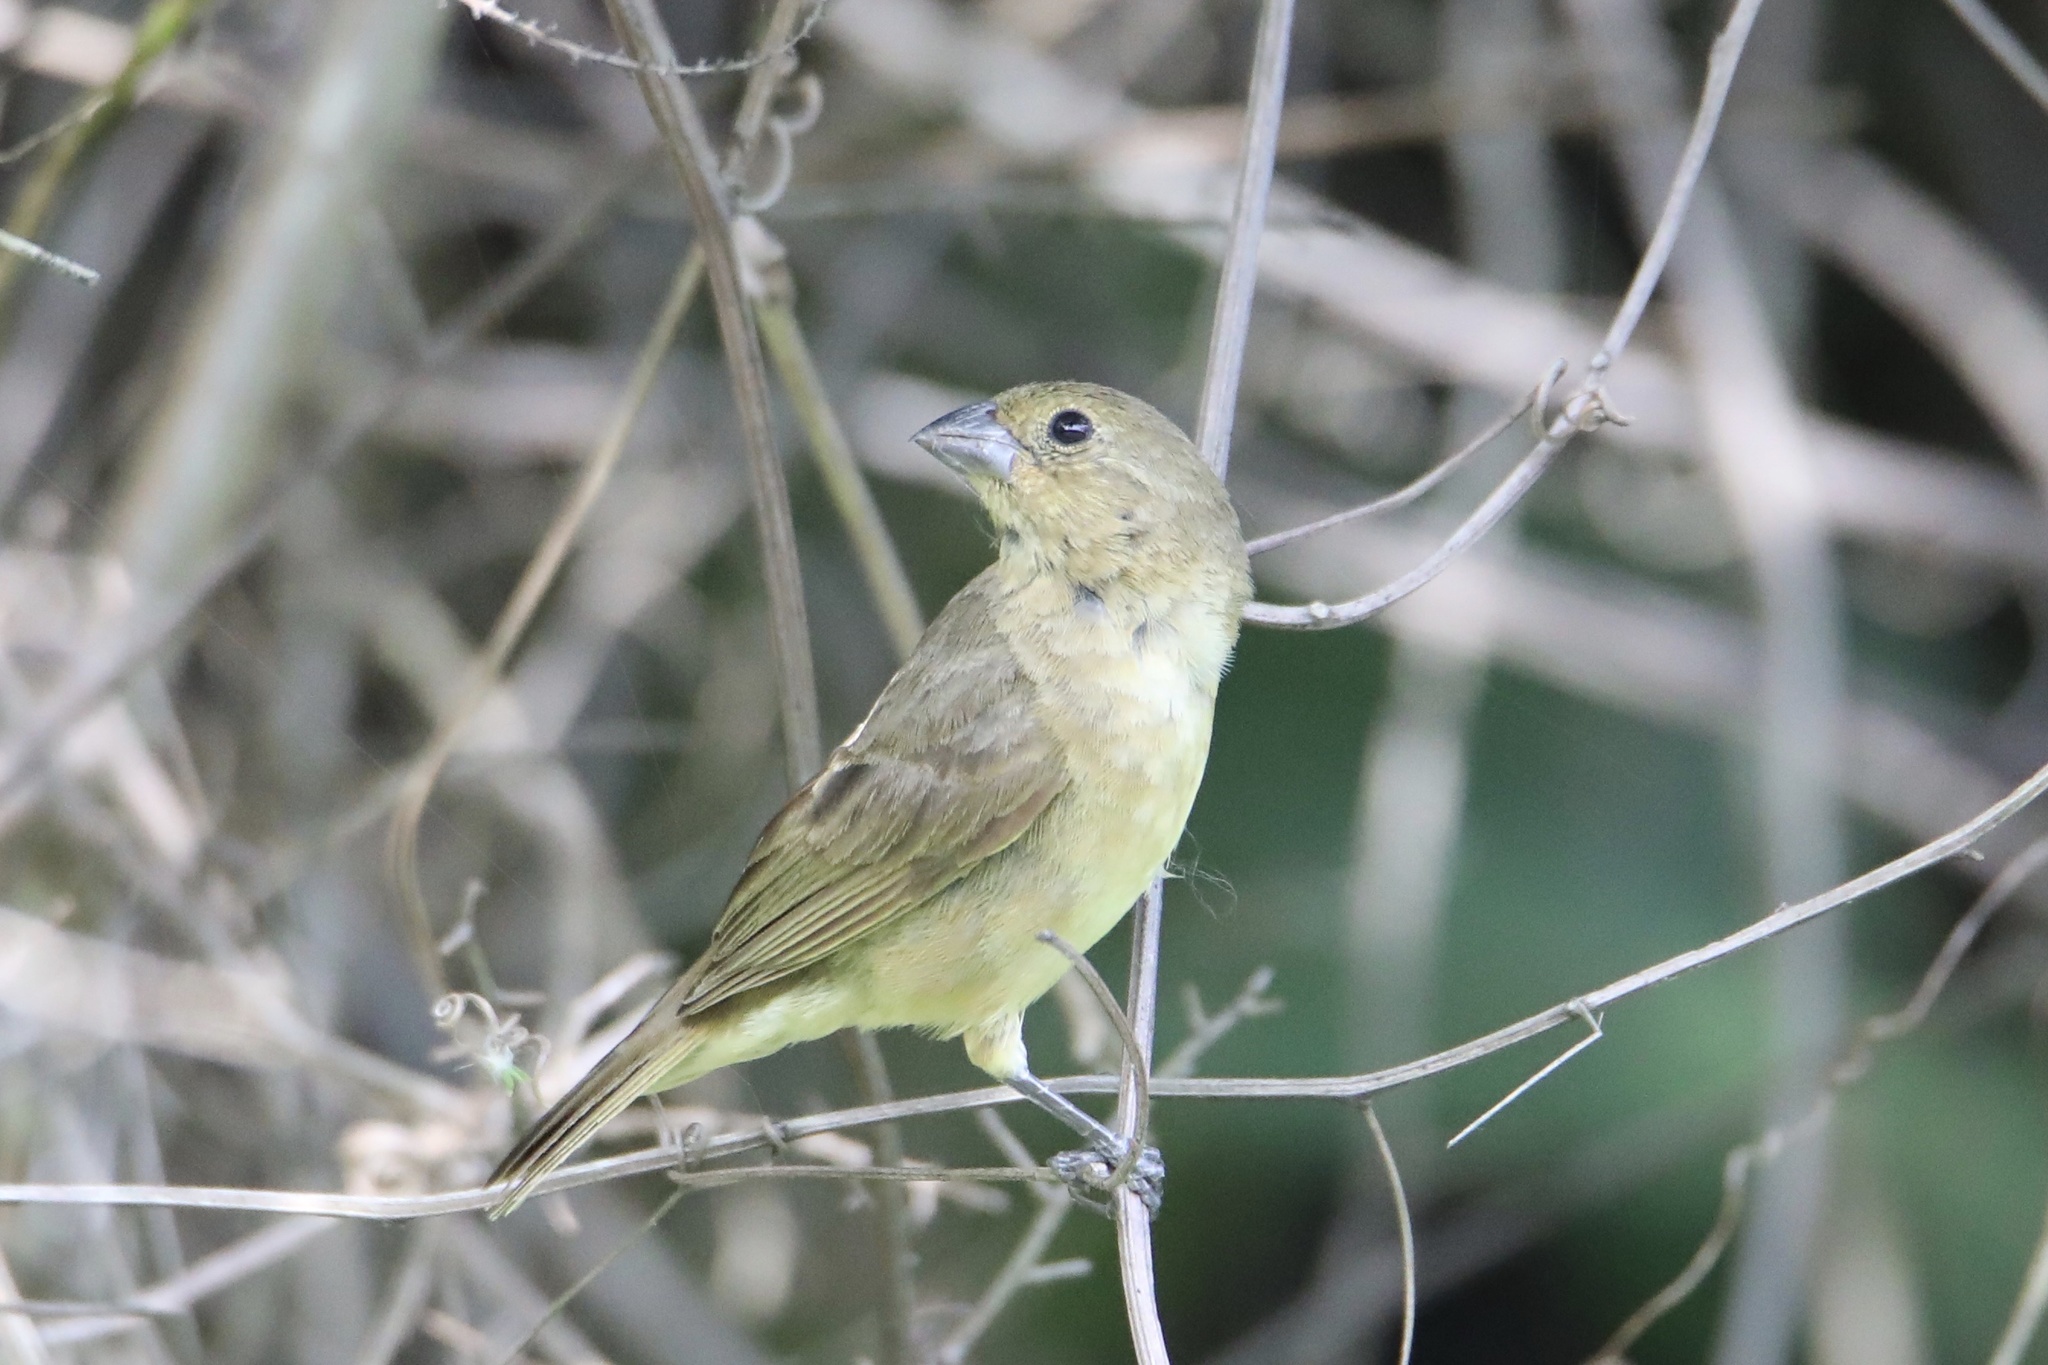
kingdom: Animalia
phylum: Chordata
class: Aves
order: Passeriformes
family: Thraupidae
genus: Sporophila
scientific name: Sporophila nigricollis
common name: Yellow-bellied seedeater
